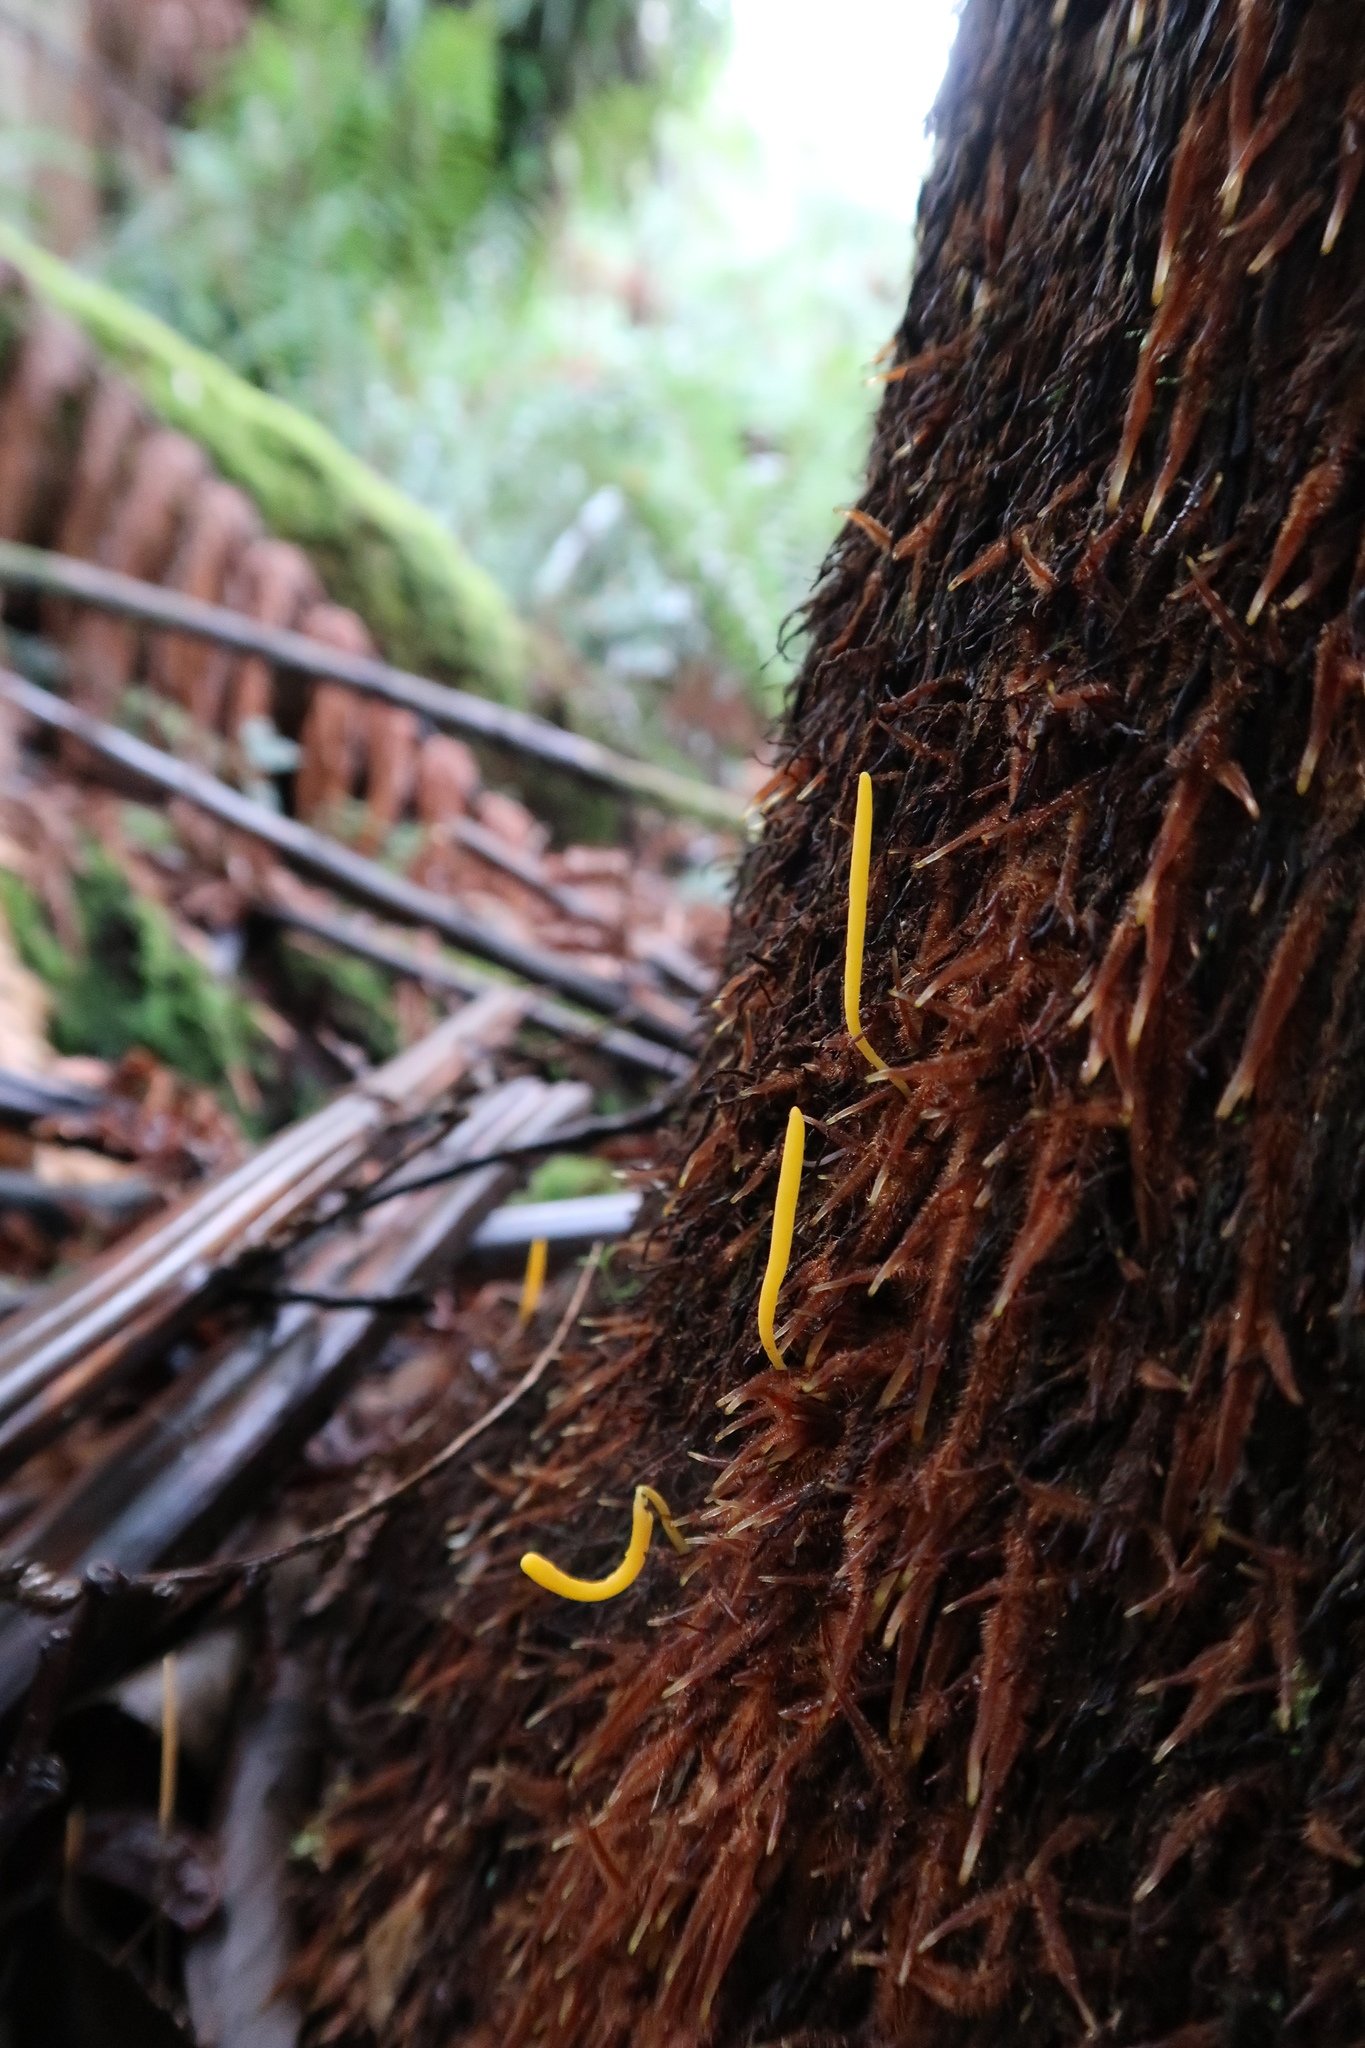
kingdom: Fungi
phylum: Basidiomycota
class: Agaricomycetes
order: Agaricales
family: Clavariaceae
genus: Clavulinopsis
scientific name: Clavulinopsis amoena
